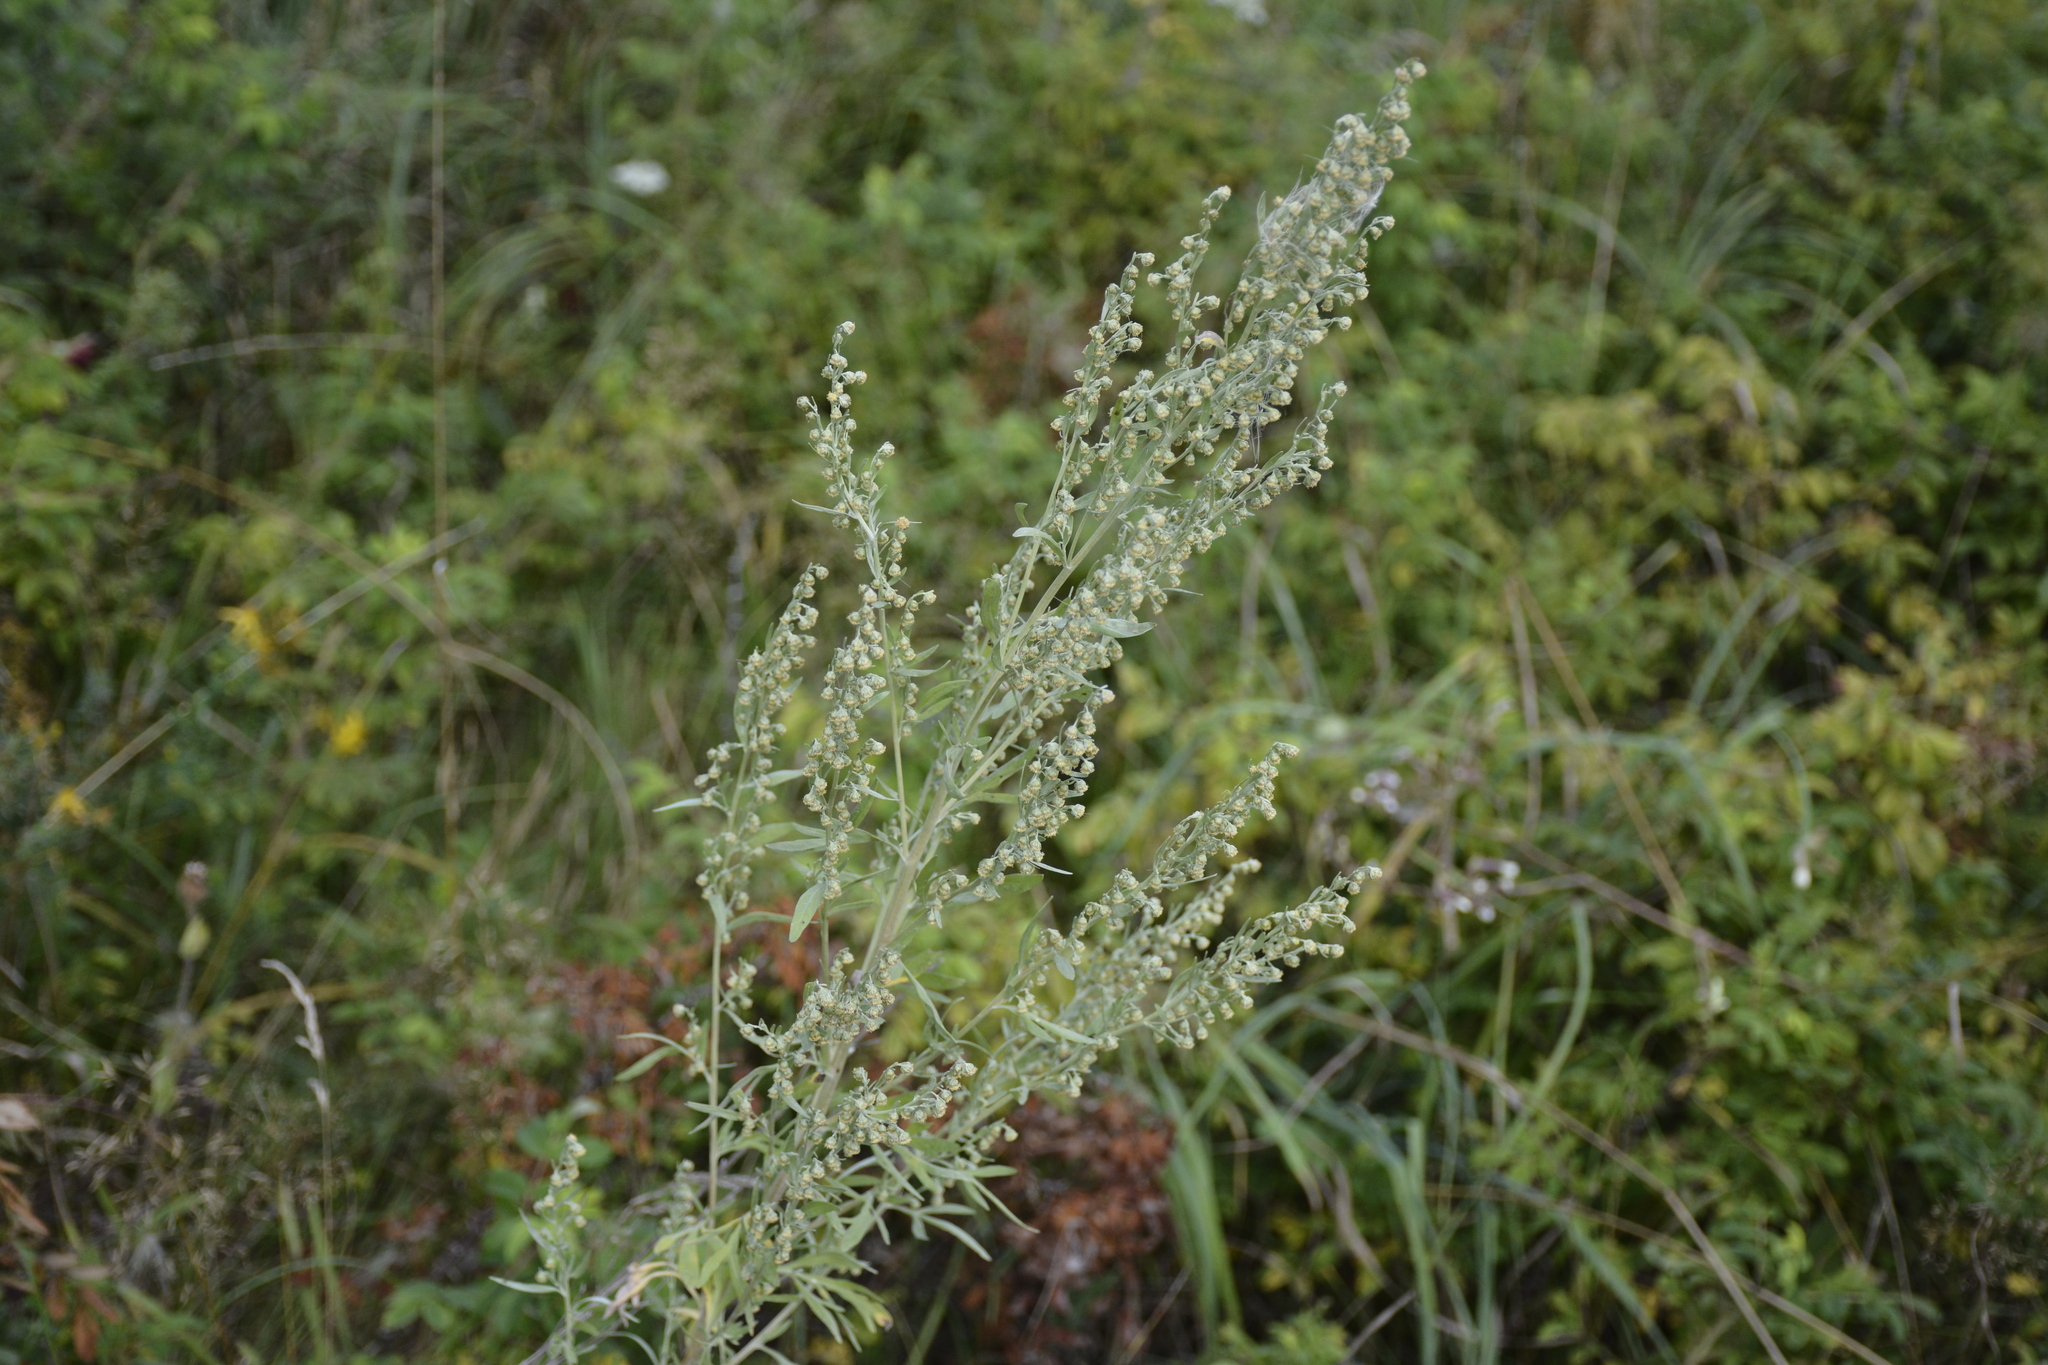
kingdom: Plantae
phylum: Tracheophyta
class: Magnoliopsida
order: Asterales
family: Asteraceae
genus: Artemisia
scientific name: Artemisia absinthium
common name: Wormwood
